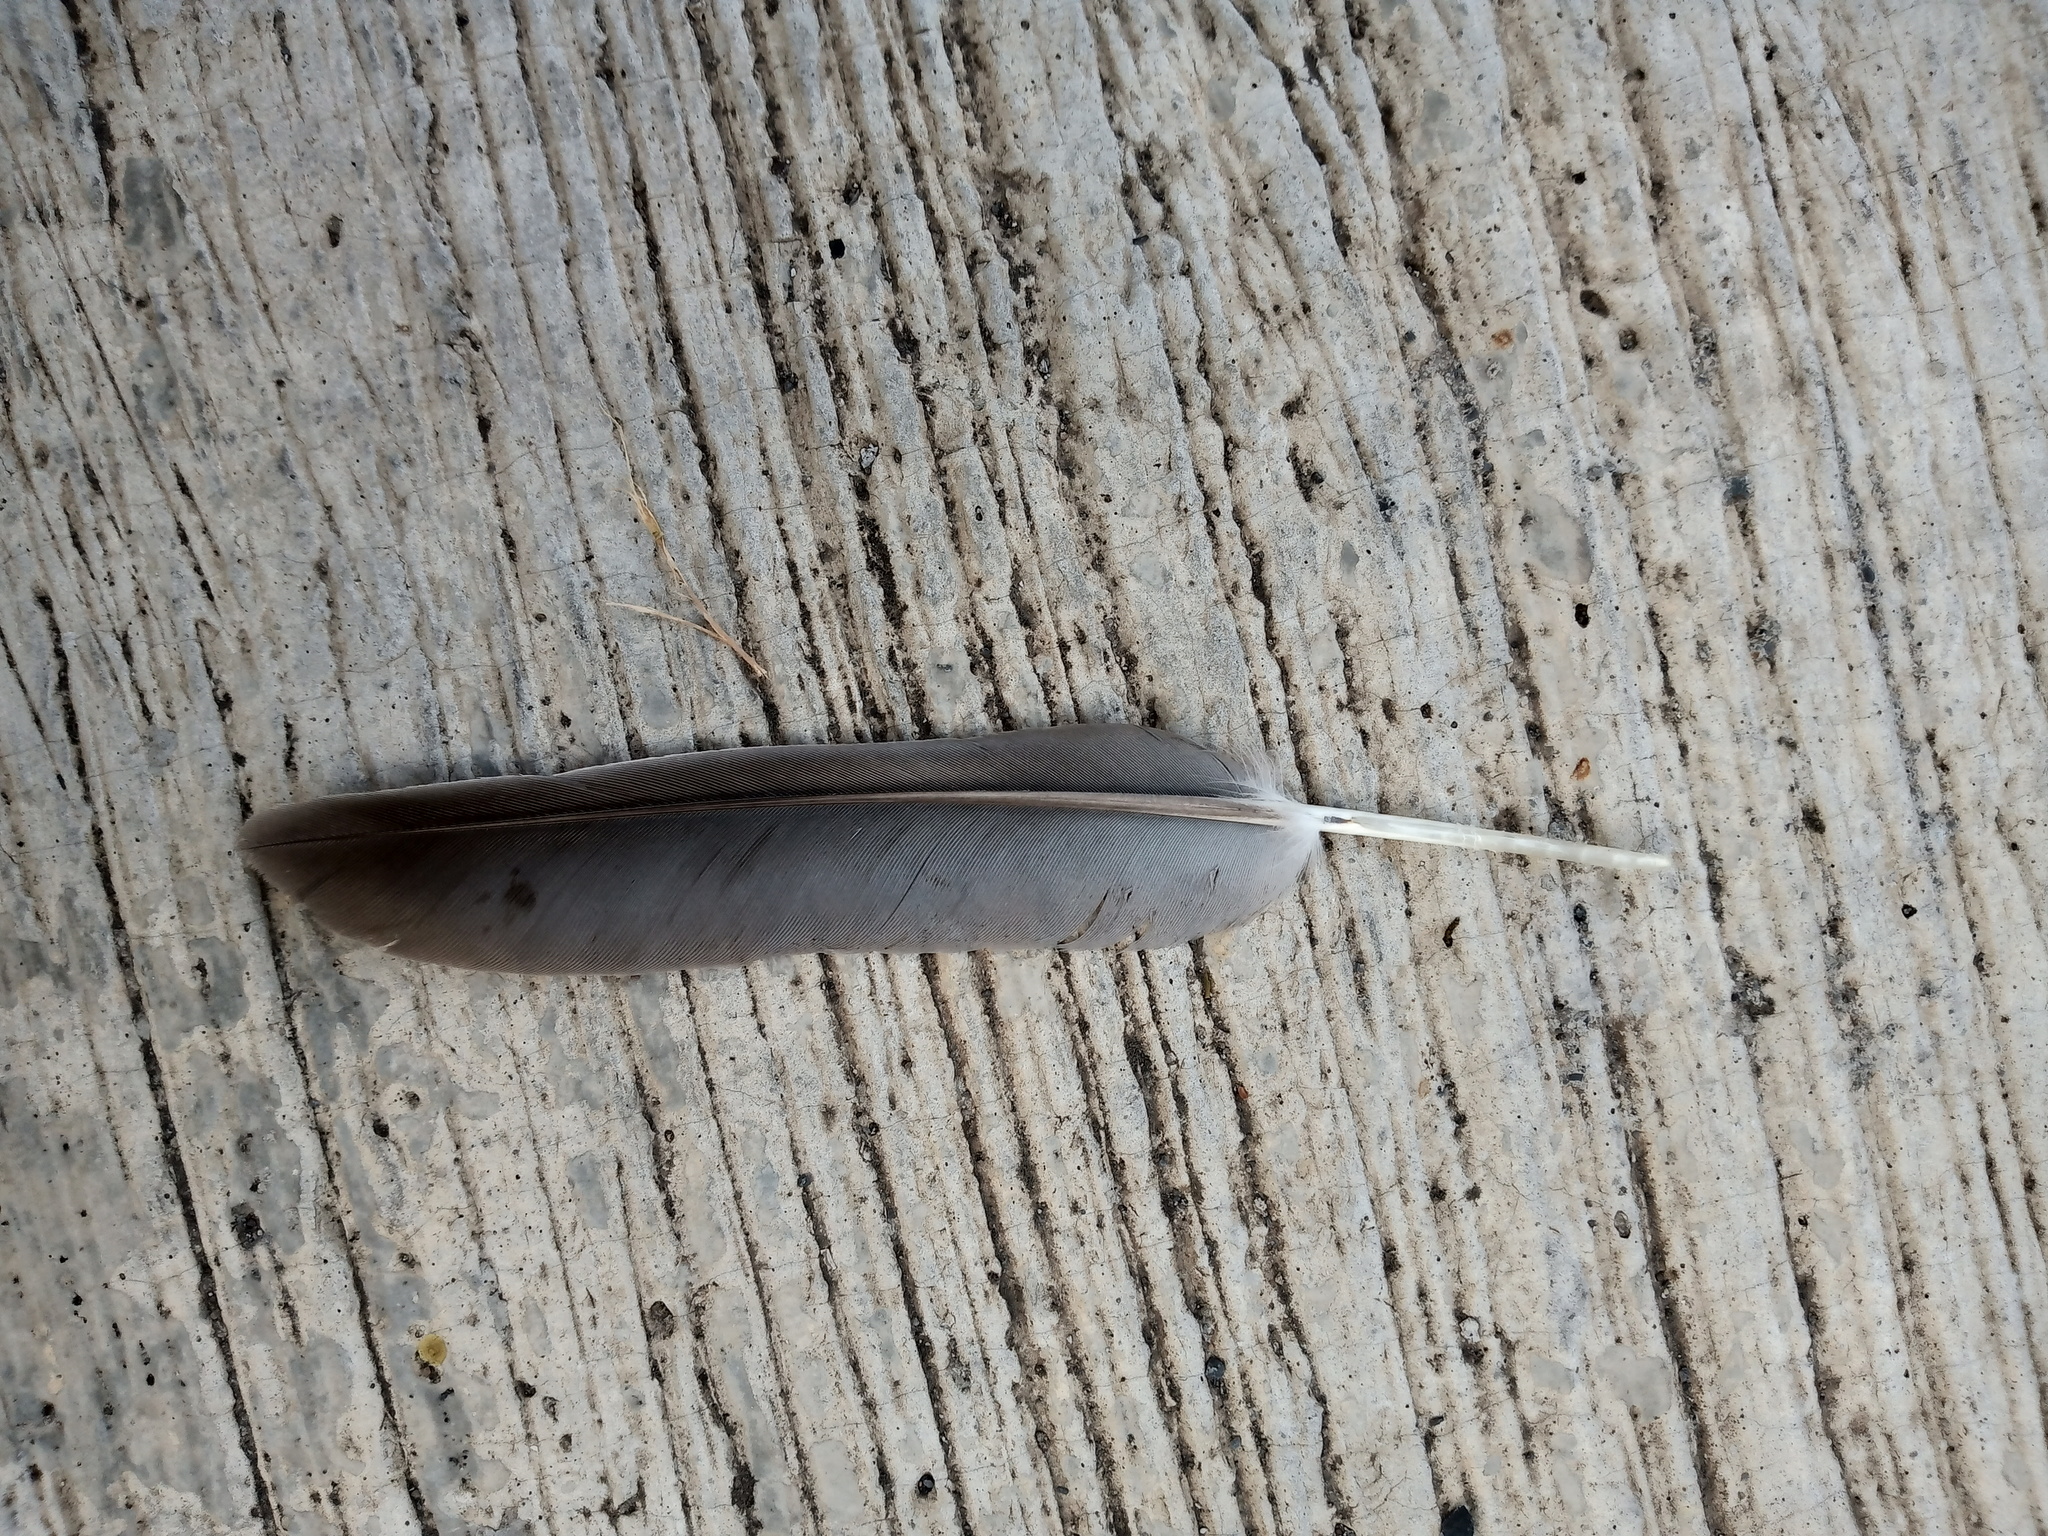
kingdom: Animalia
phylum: Chordata
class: Aves
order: Columbiformes
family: Columbidae
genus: Zenaida
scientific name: Zenaida asiatica
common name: White-winged dove
